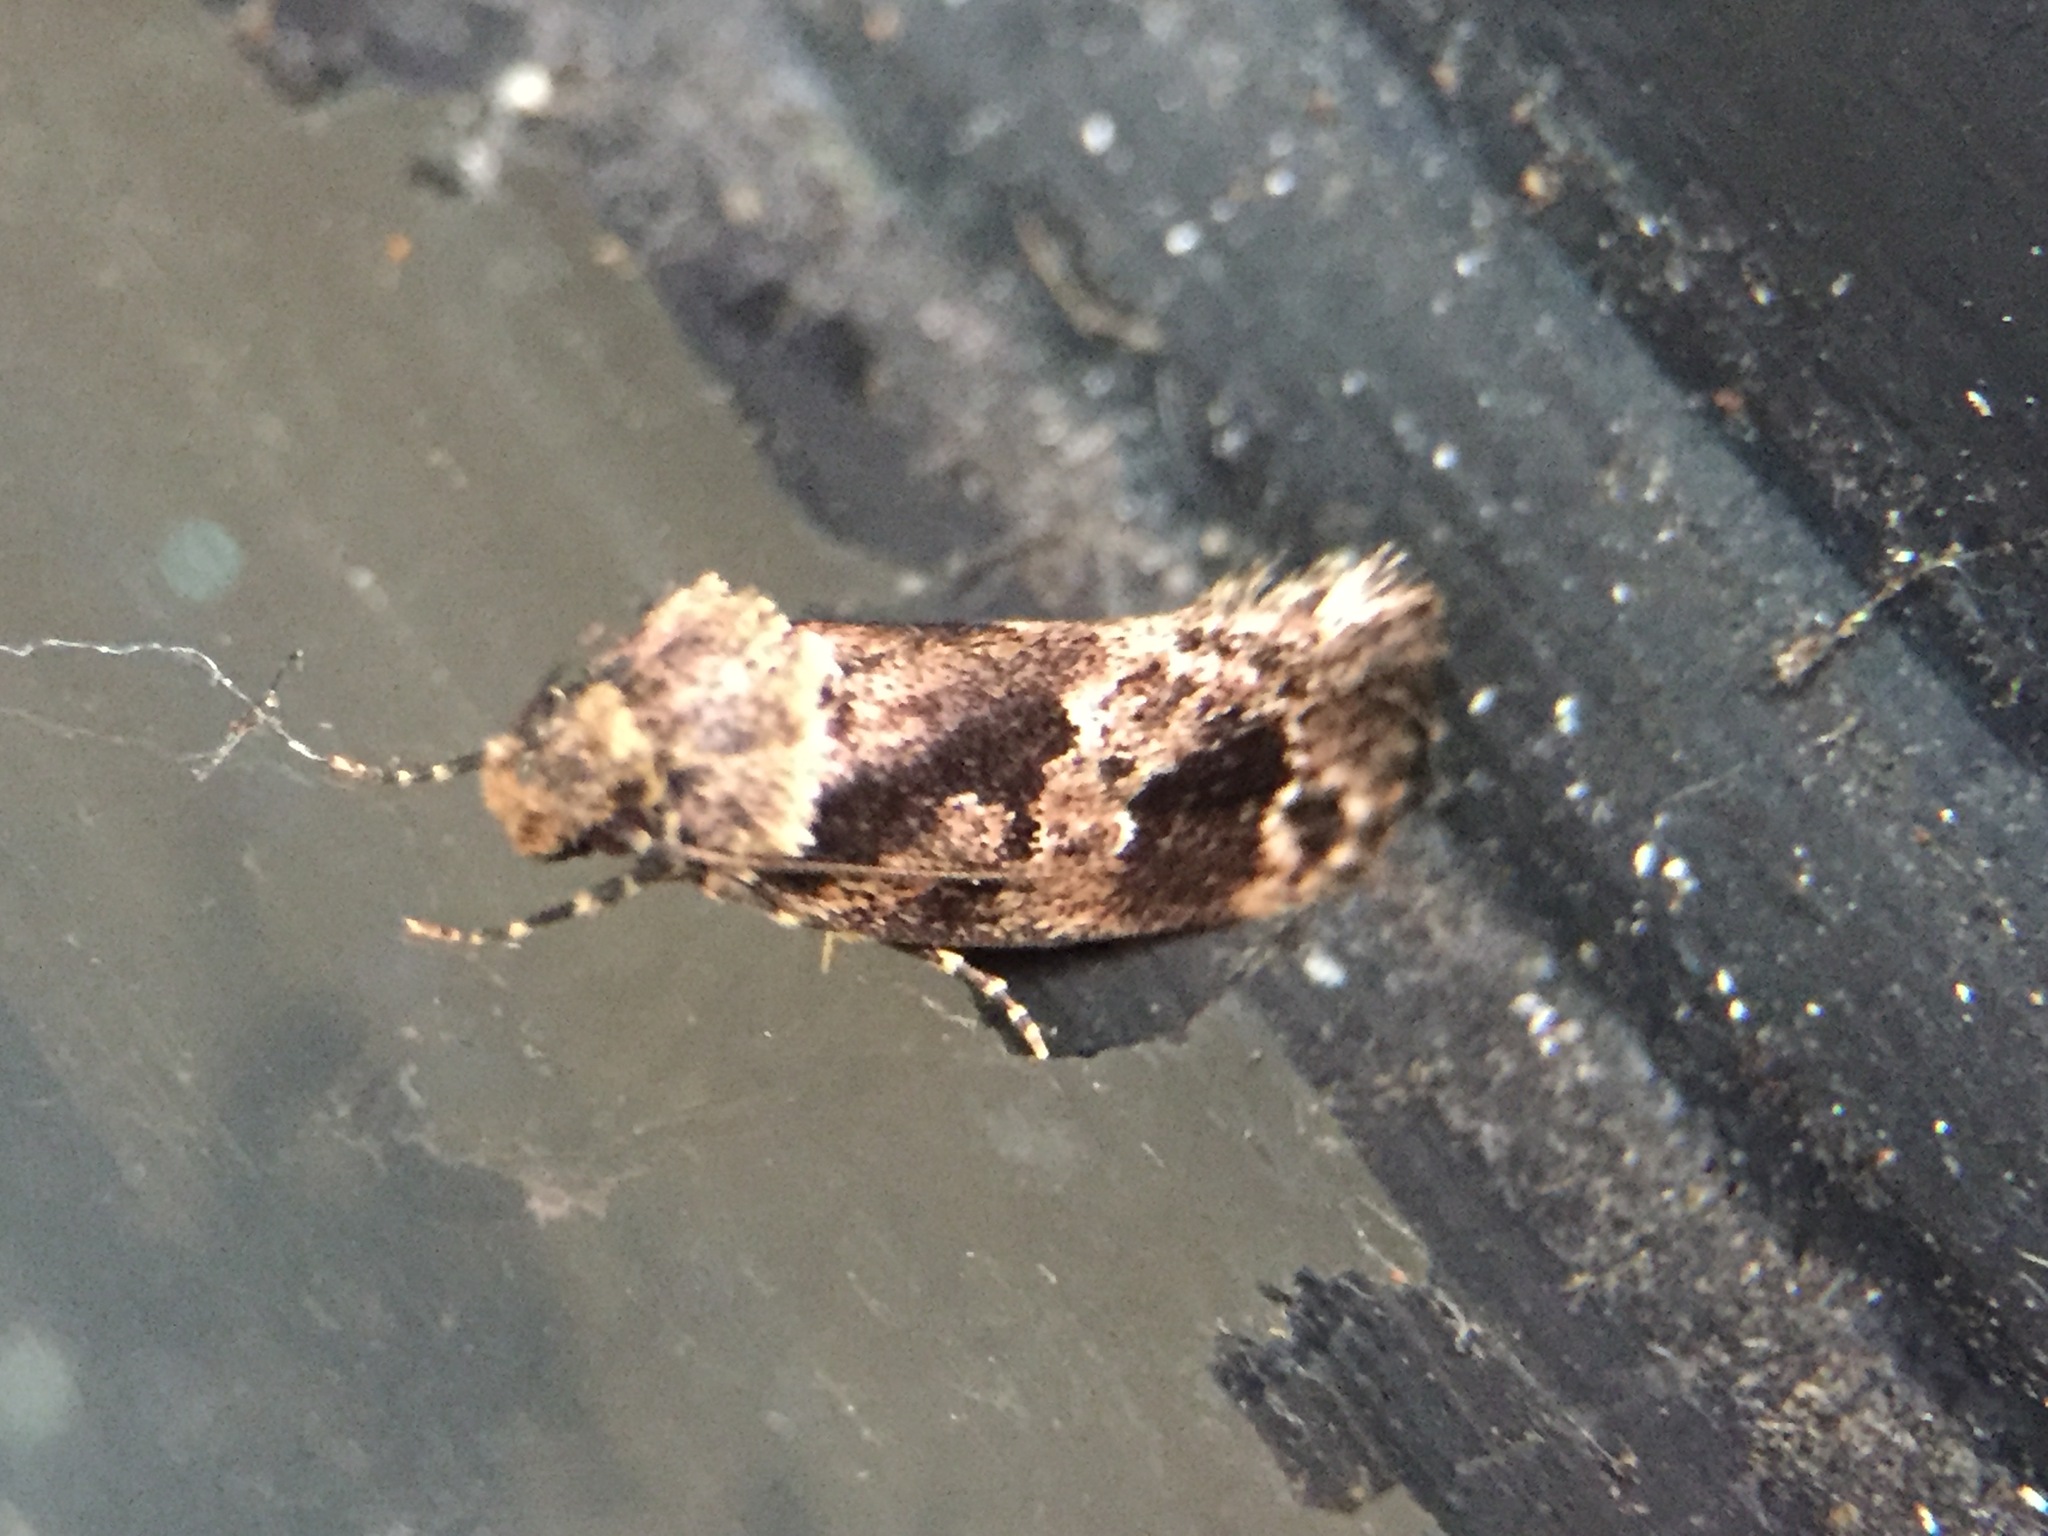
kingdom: Animalia
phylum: Arthropoda
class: Insecta
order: Lepidoptera
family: Oecophoridae
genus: Barea
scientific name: Barea consignatella
